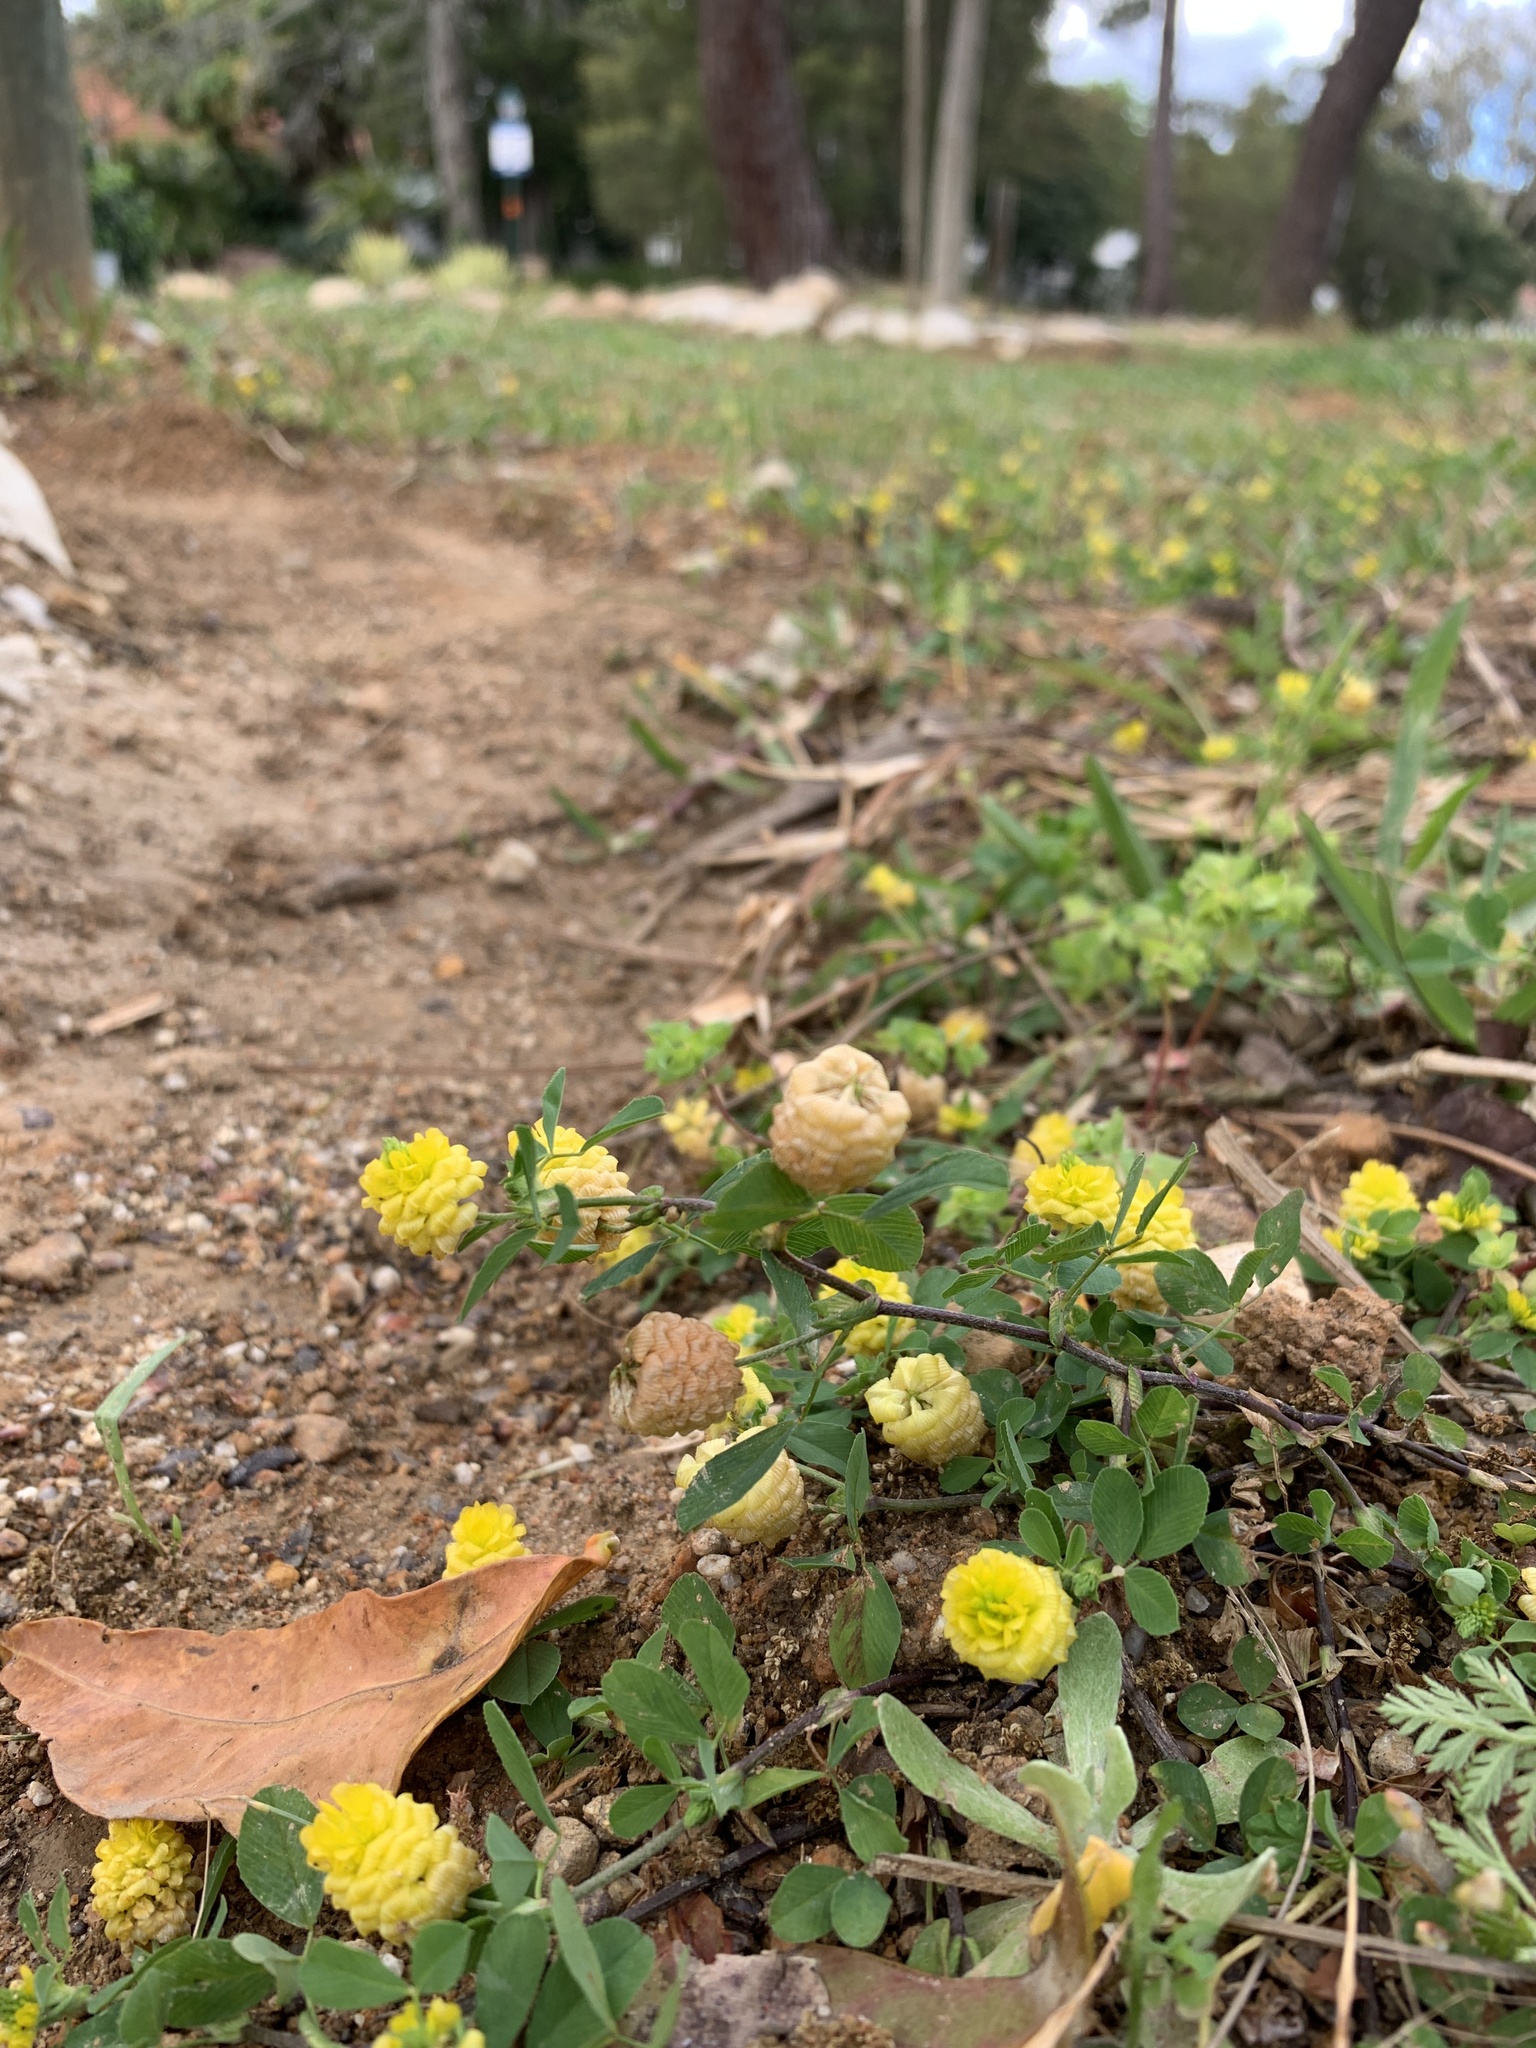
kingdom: Plantae
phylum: Tracheophyta
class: Magnoliopsida
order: Fabales
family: Fabaceae
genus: Trifolium
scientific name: Trifolium campestre
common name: Field clover
